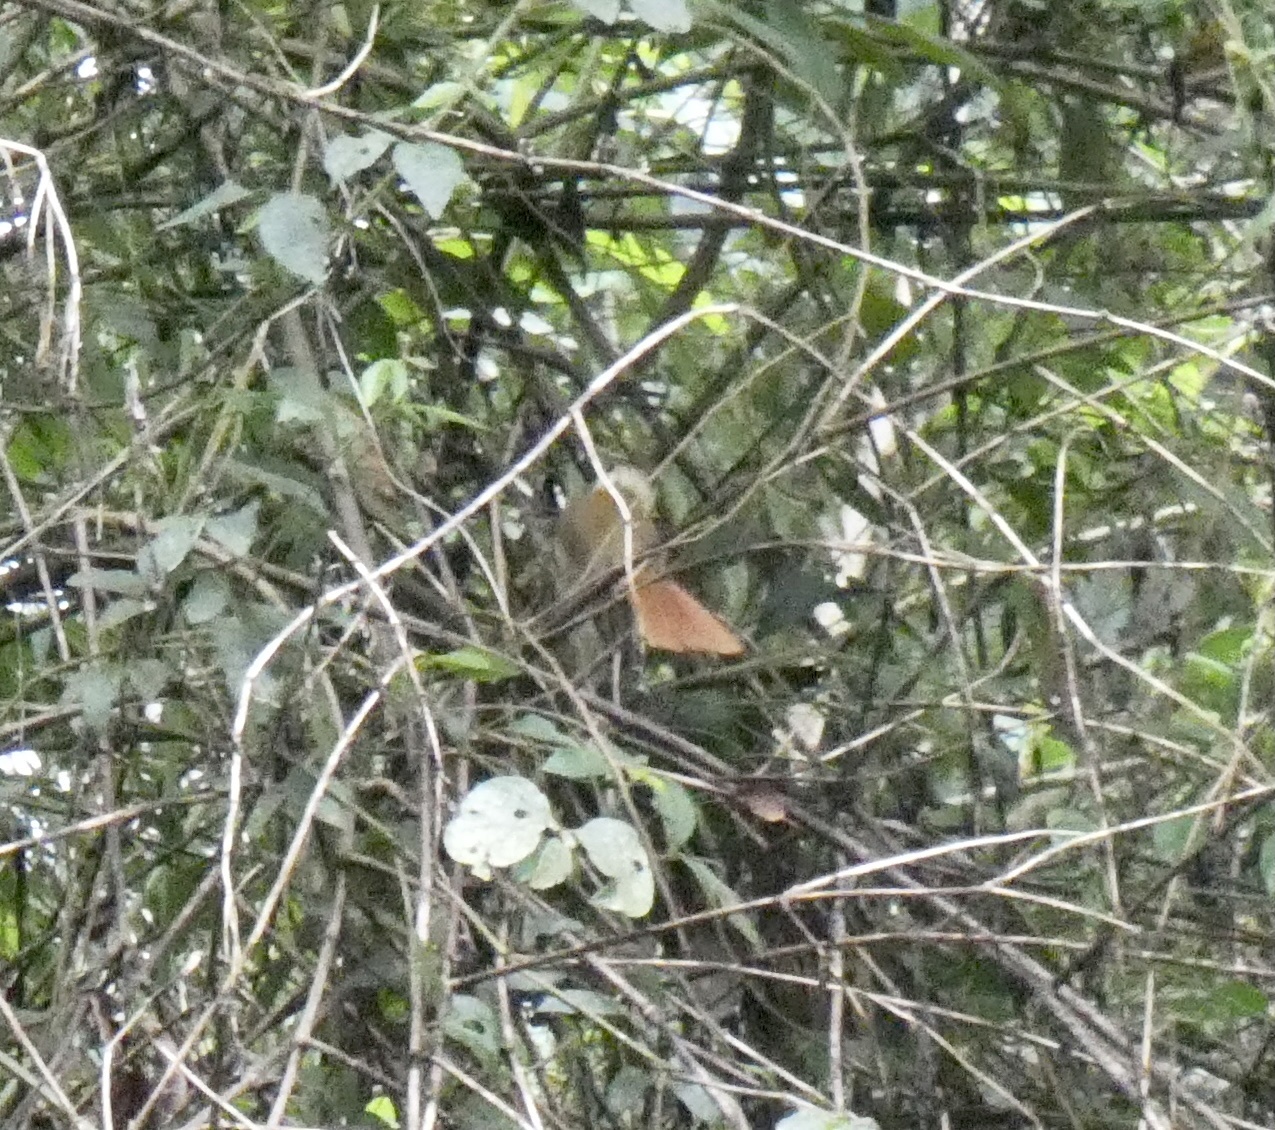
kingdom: Animalia
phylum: Chordata
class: Aves
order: Passeriformes
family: Furnariidae
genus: Anabazenops
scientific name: Anabazenops fuscus
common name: White-collared foliage-gleaner
